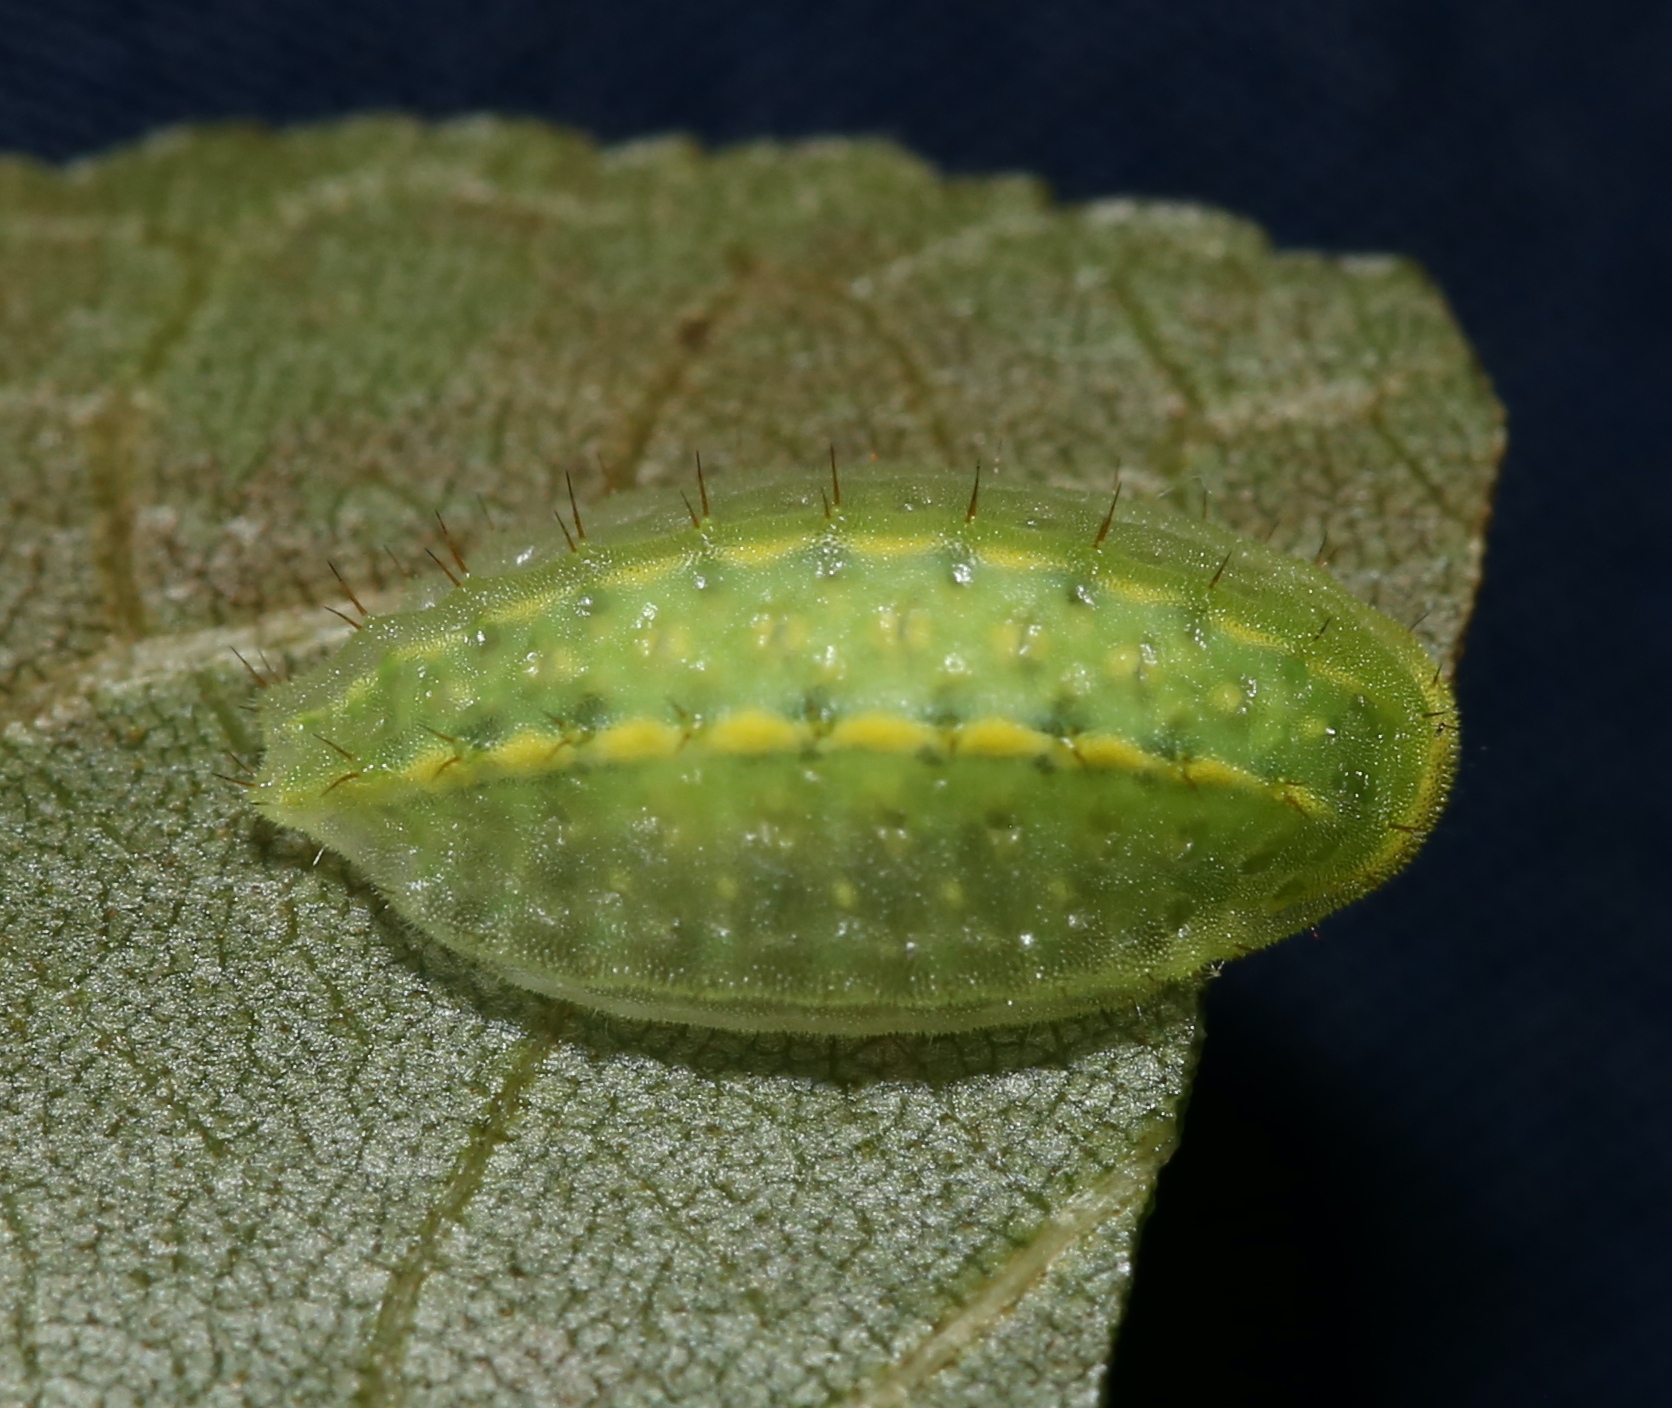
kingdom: Animalia
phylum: Arthropoda
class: Insecta
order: Lepidoptera
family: Limacodidae
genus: Apoda
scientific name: Apoda y-inversa
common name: Yellow-collared slug moth
